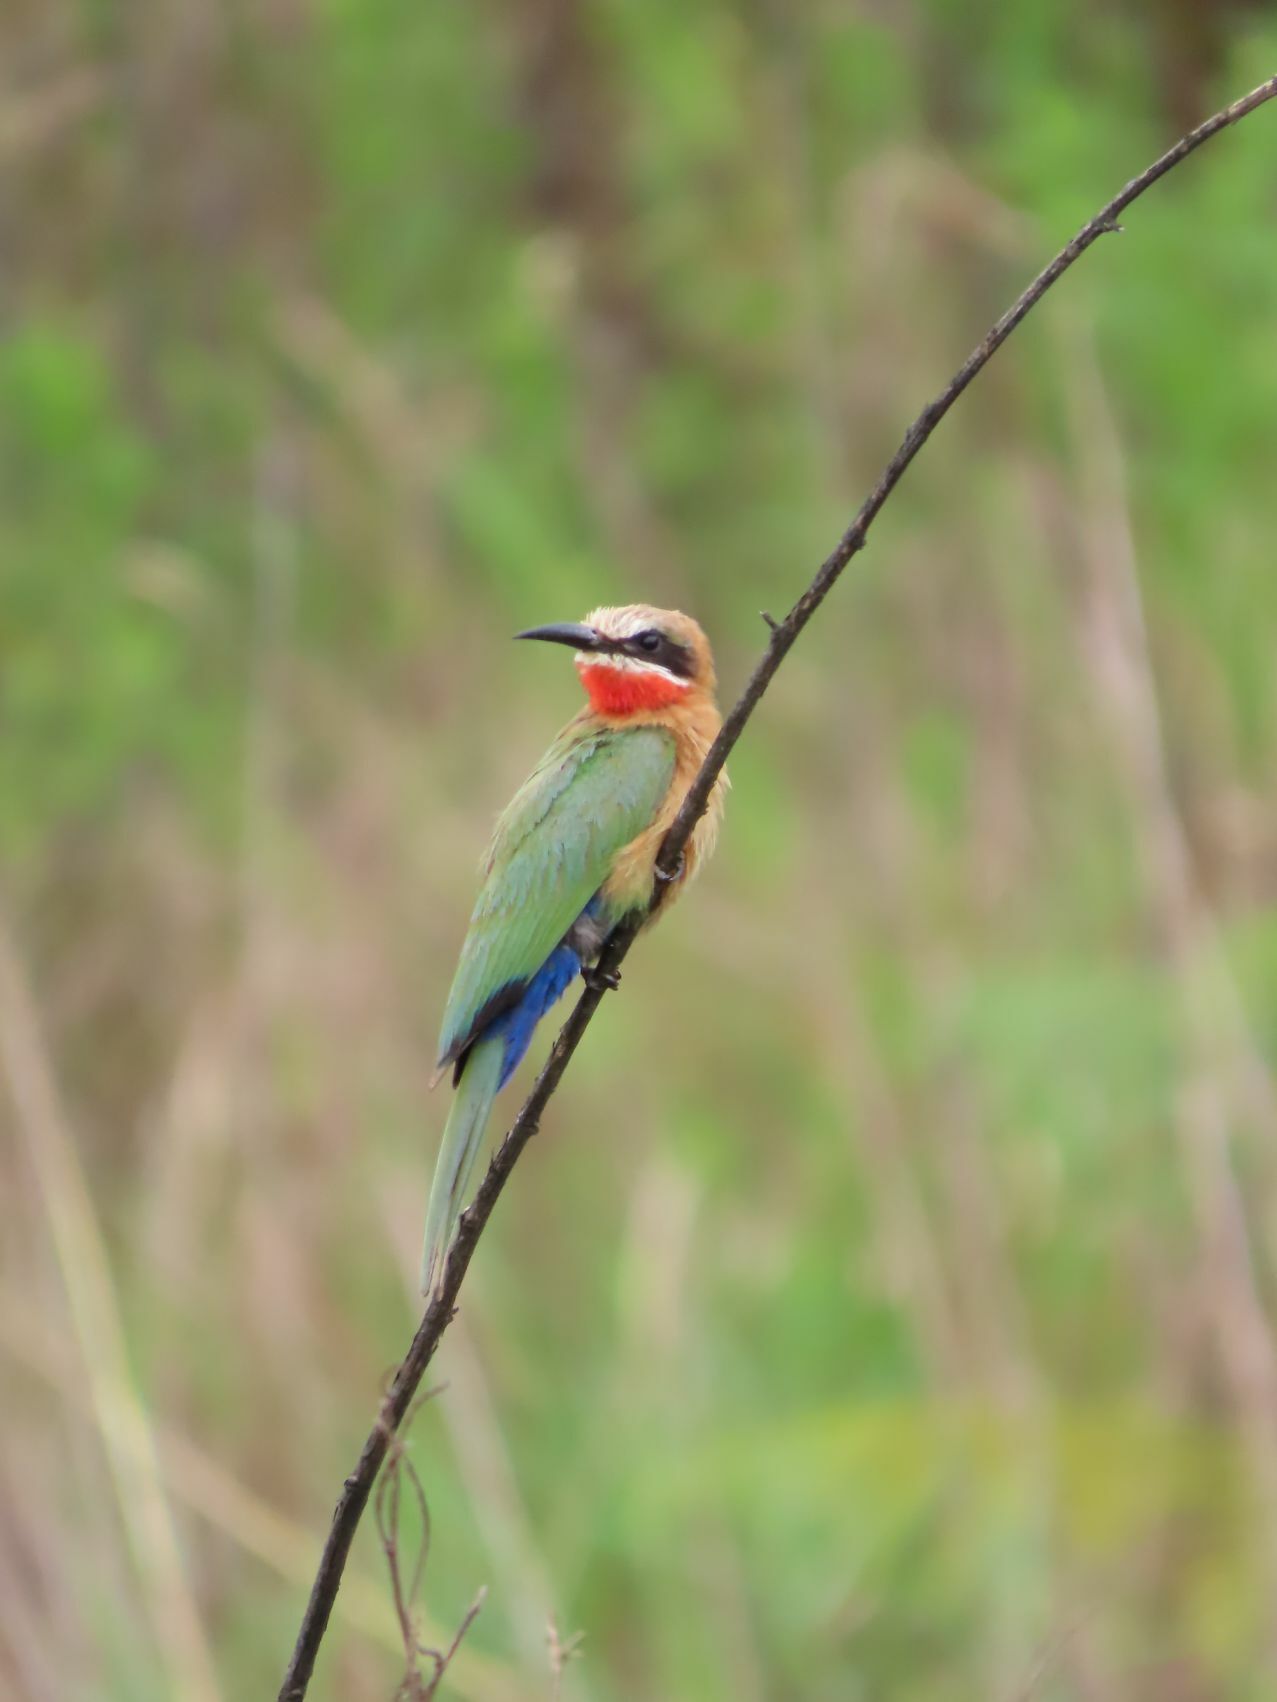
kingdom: Animalia
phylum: Chordata
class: Aves
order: Coraciiformes
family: Meropidae
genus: Merops
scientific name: Merops bullockoides
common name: White-fronted bee-eater
